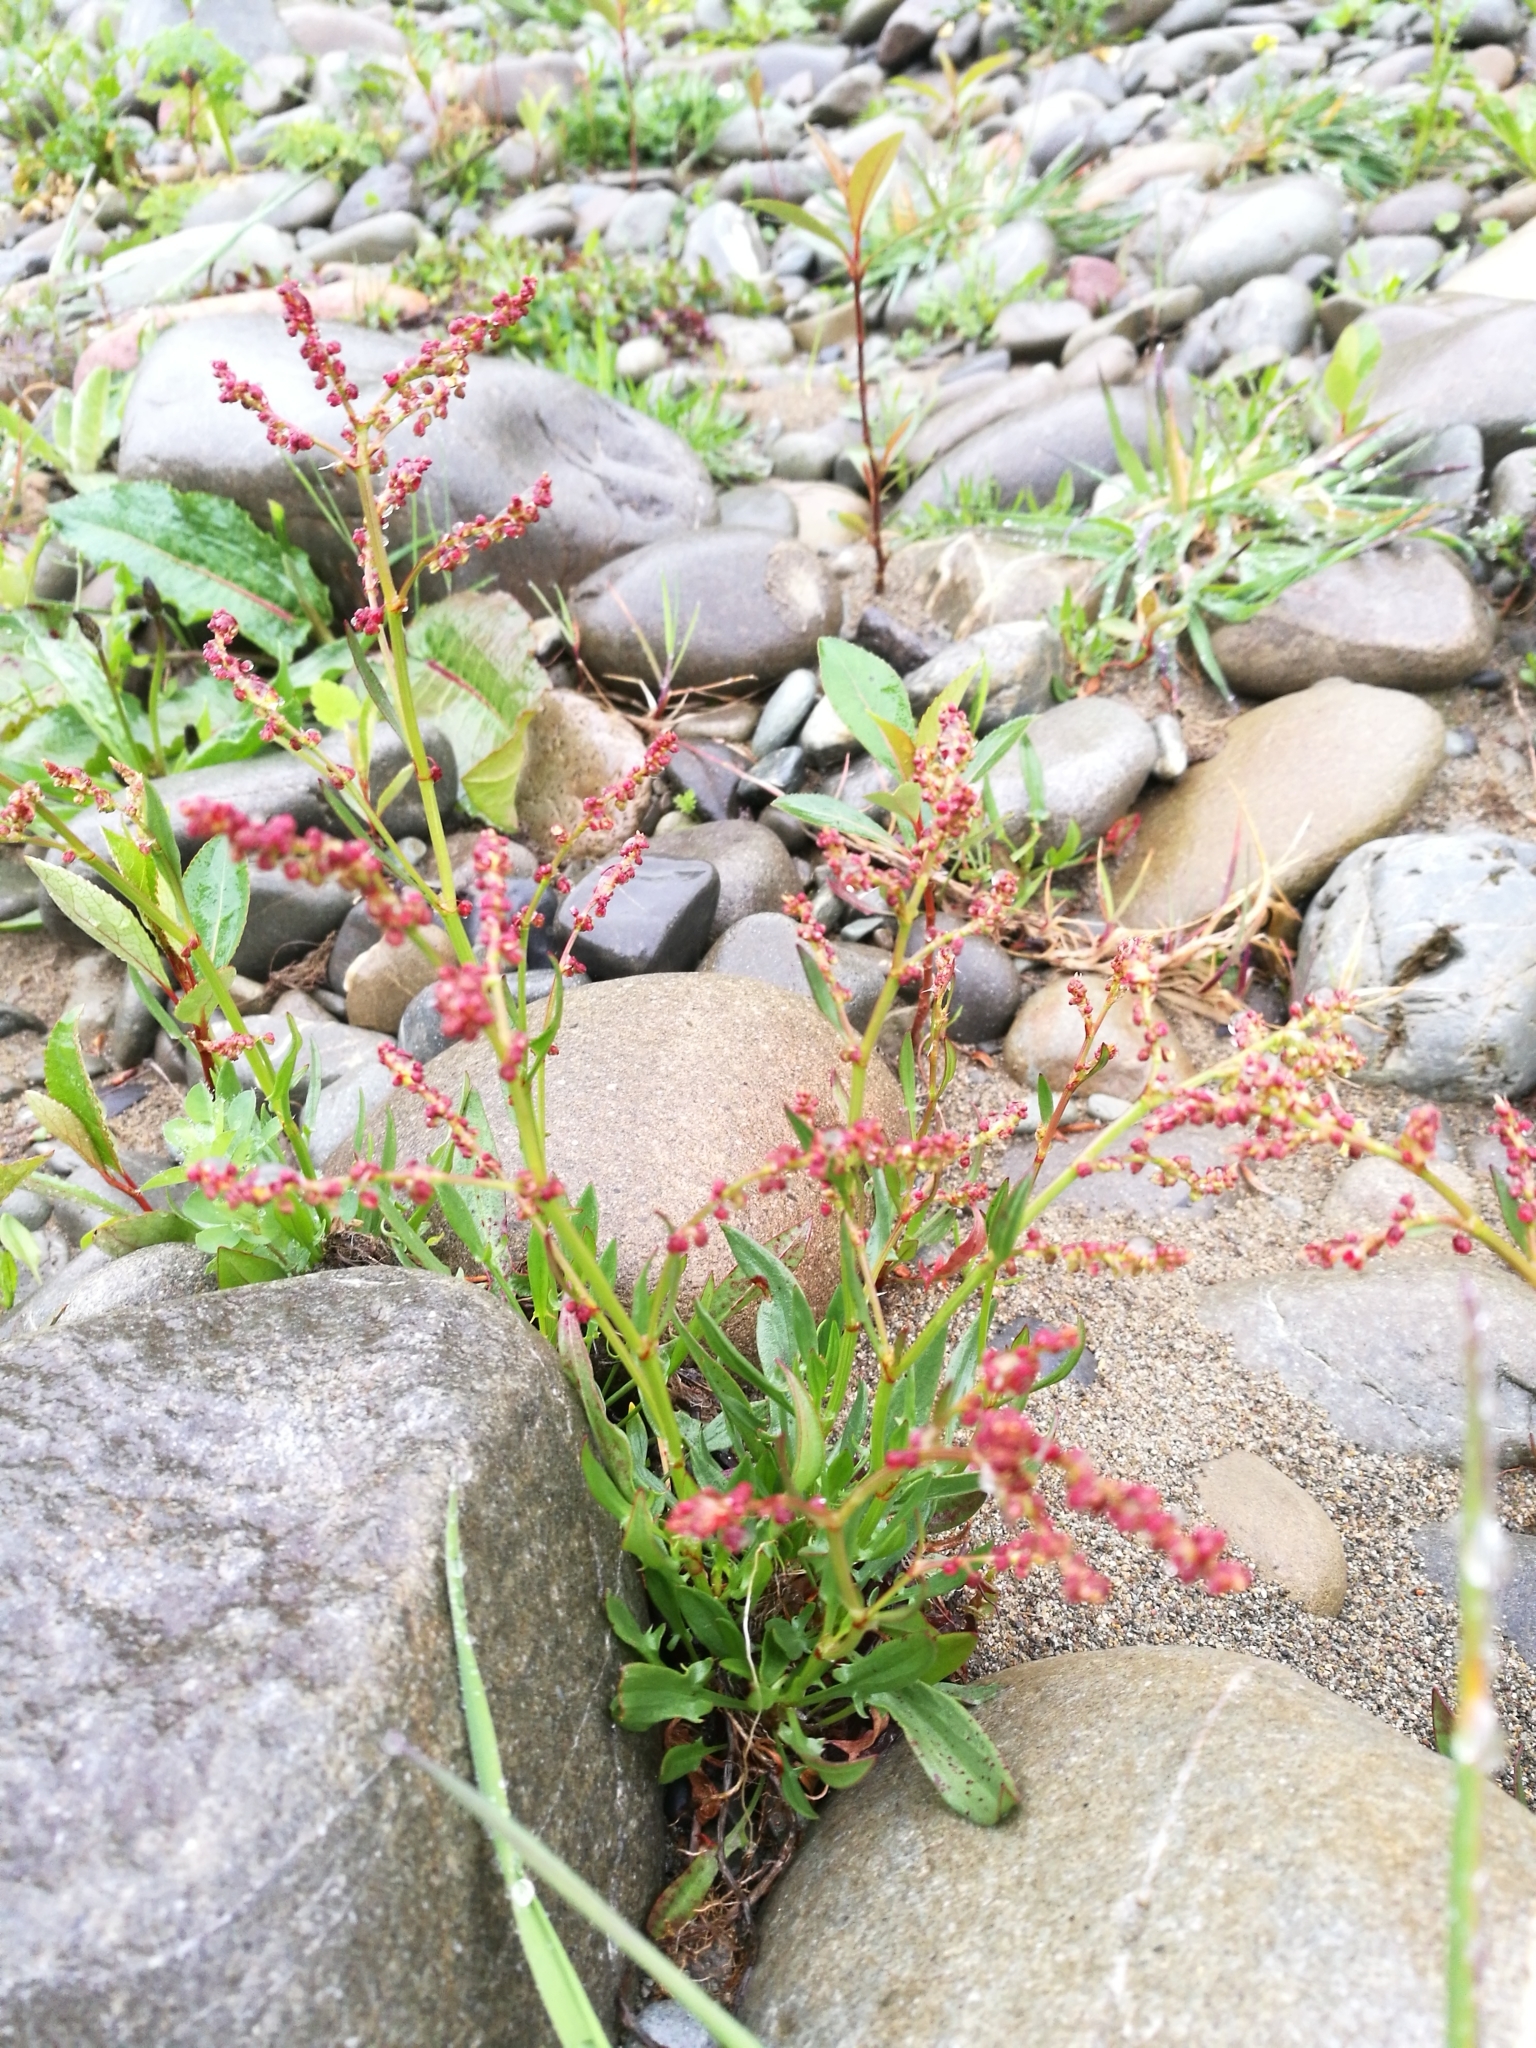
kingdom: Plantae
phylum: Tracheophyta
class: Magnoliopsida
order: Caryophyllales
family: Polygonaceae
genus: Rumex
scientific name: Rumex acetosella
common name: Common sheep sorrel
